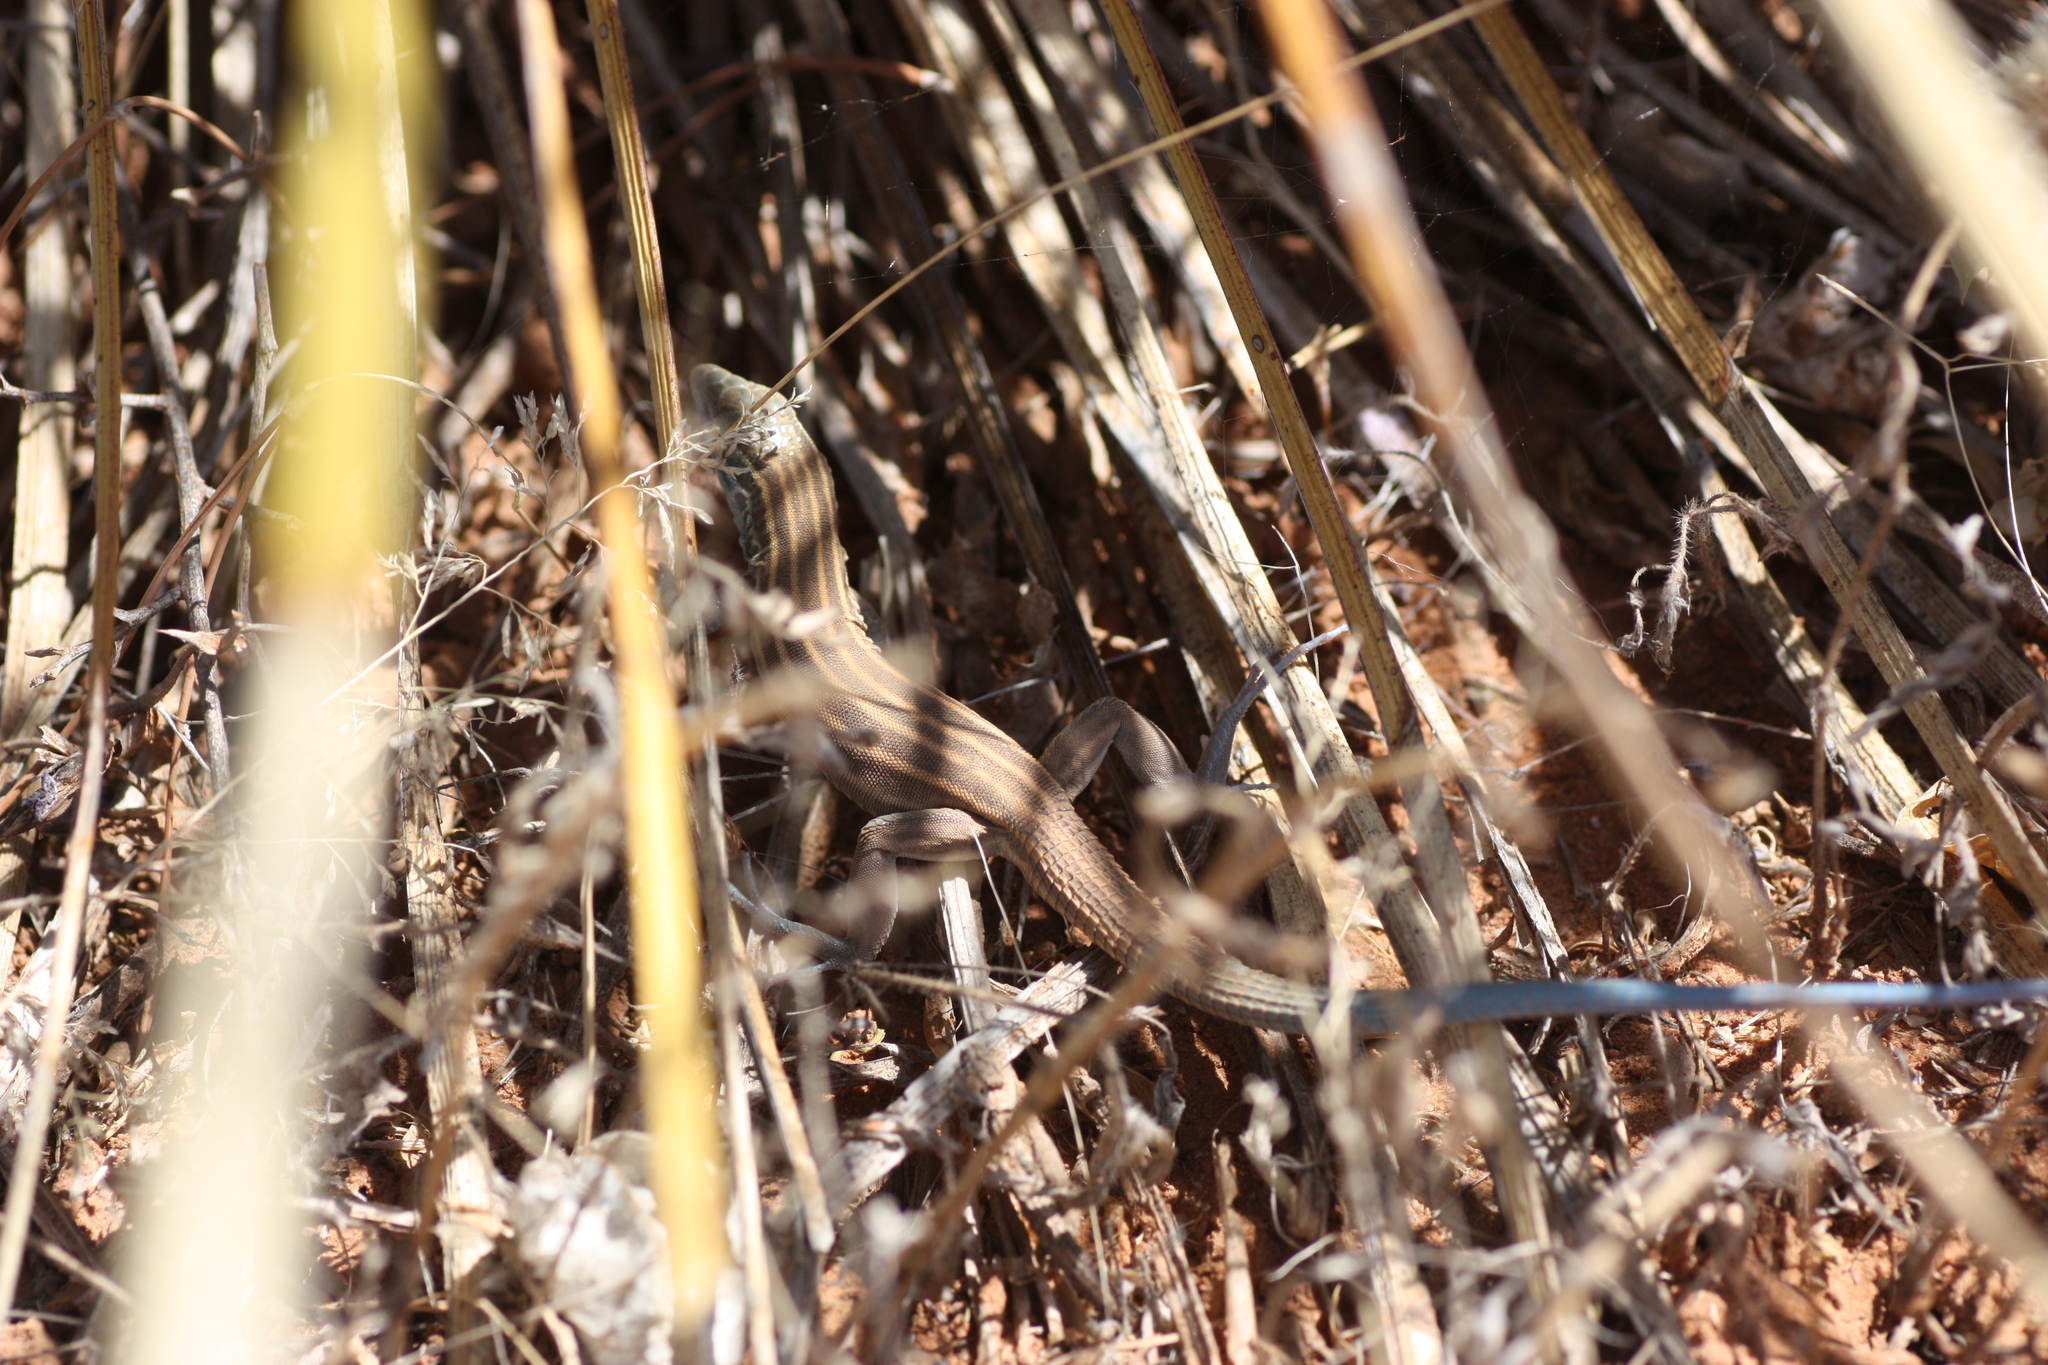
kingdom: Animalia
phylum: Chordata
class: Squamata
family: Teiidae
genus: Aspidoscelis
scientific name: Aspidoscelis inornatus
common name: Little striped whiptail
